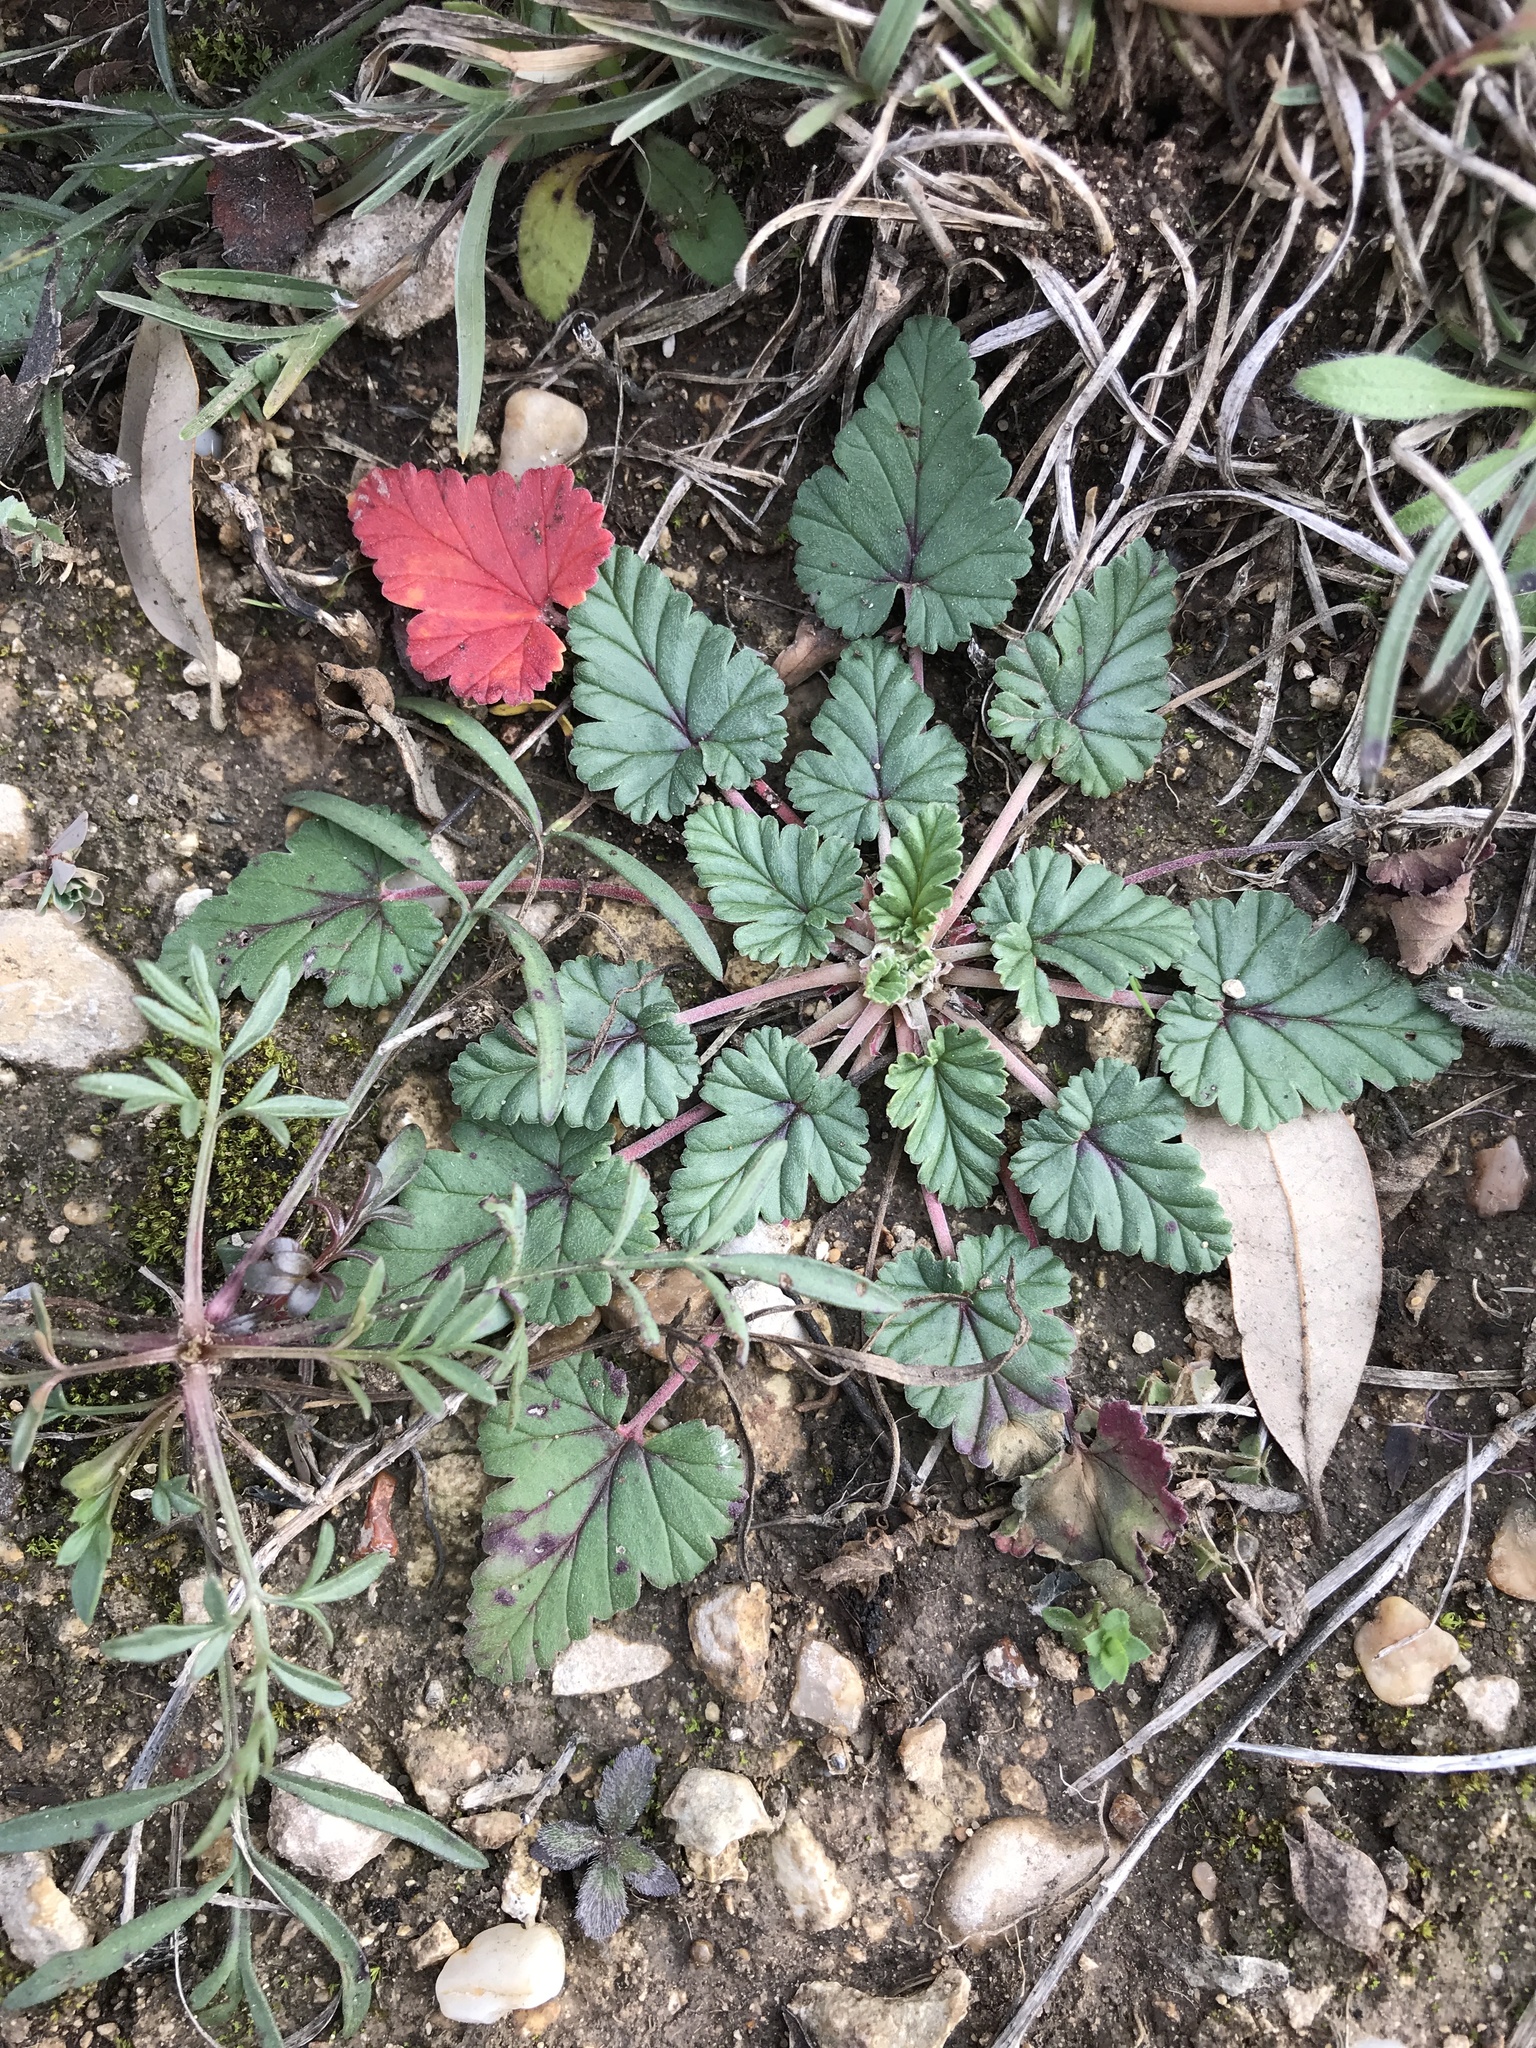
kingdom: Plantae
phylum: Tracheophyta
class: Magnoliopsida
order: Geraniales
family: Geraniaceae
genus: Erodium
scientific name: Erodium texanum
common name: Texas stork's-bill
